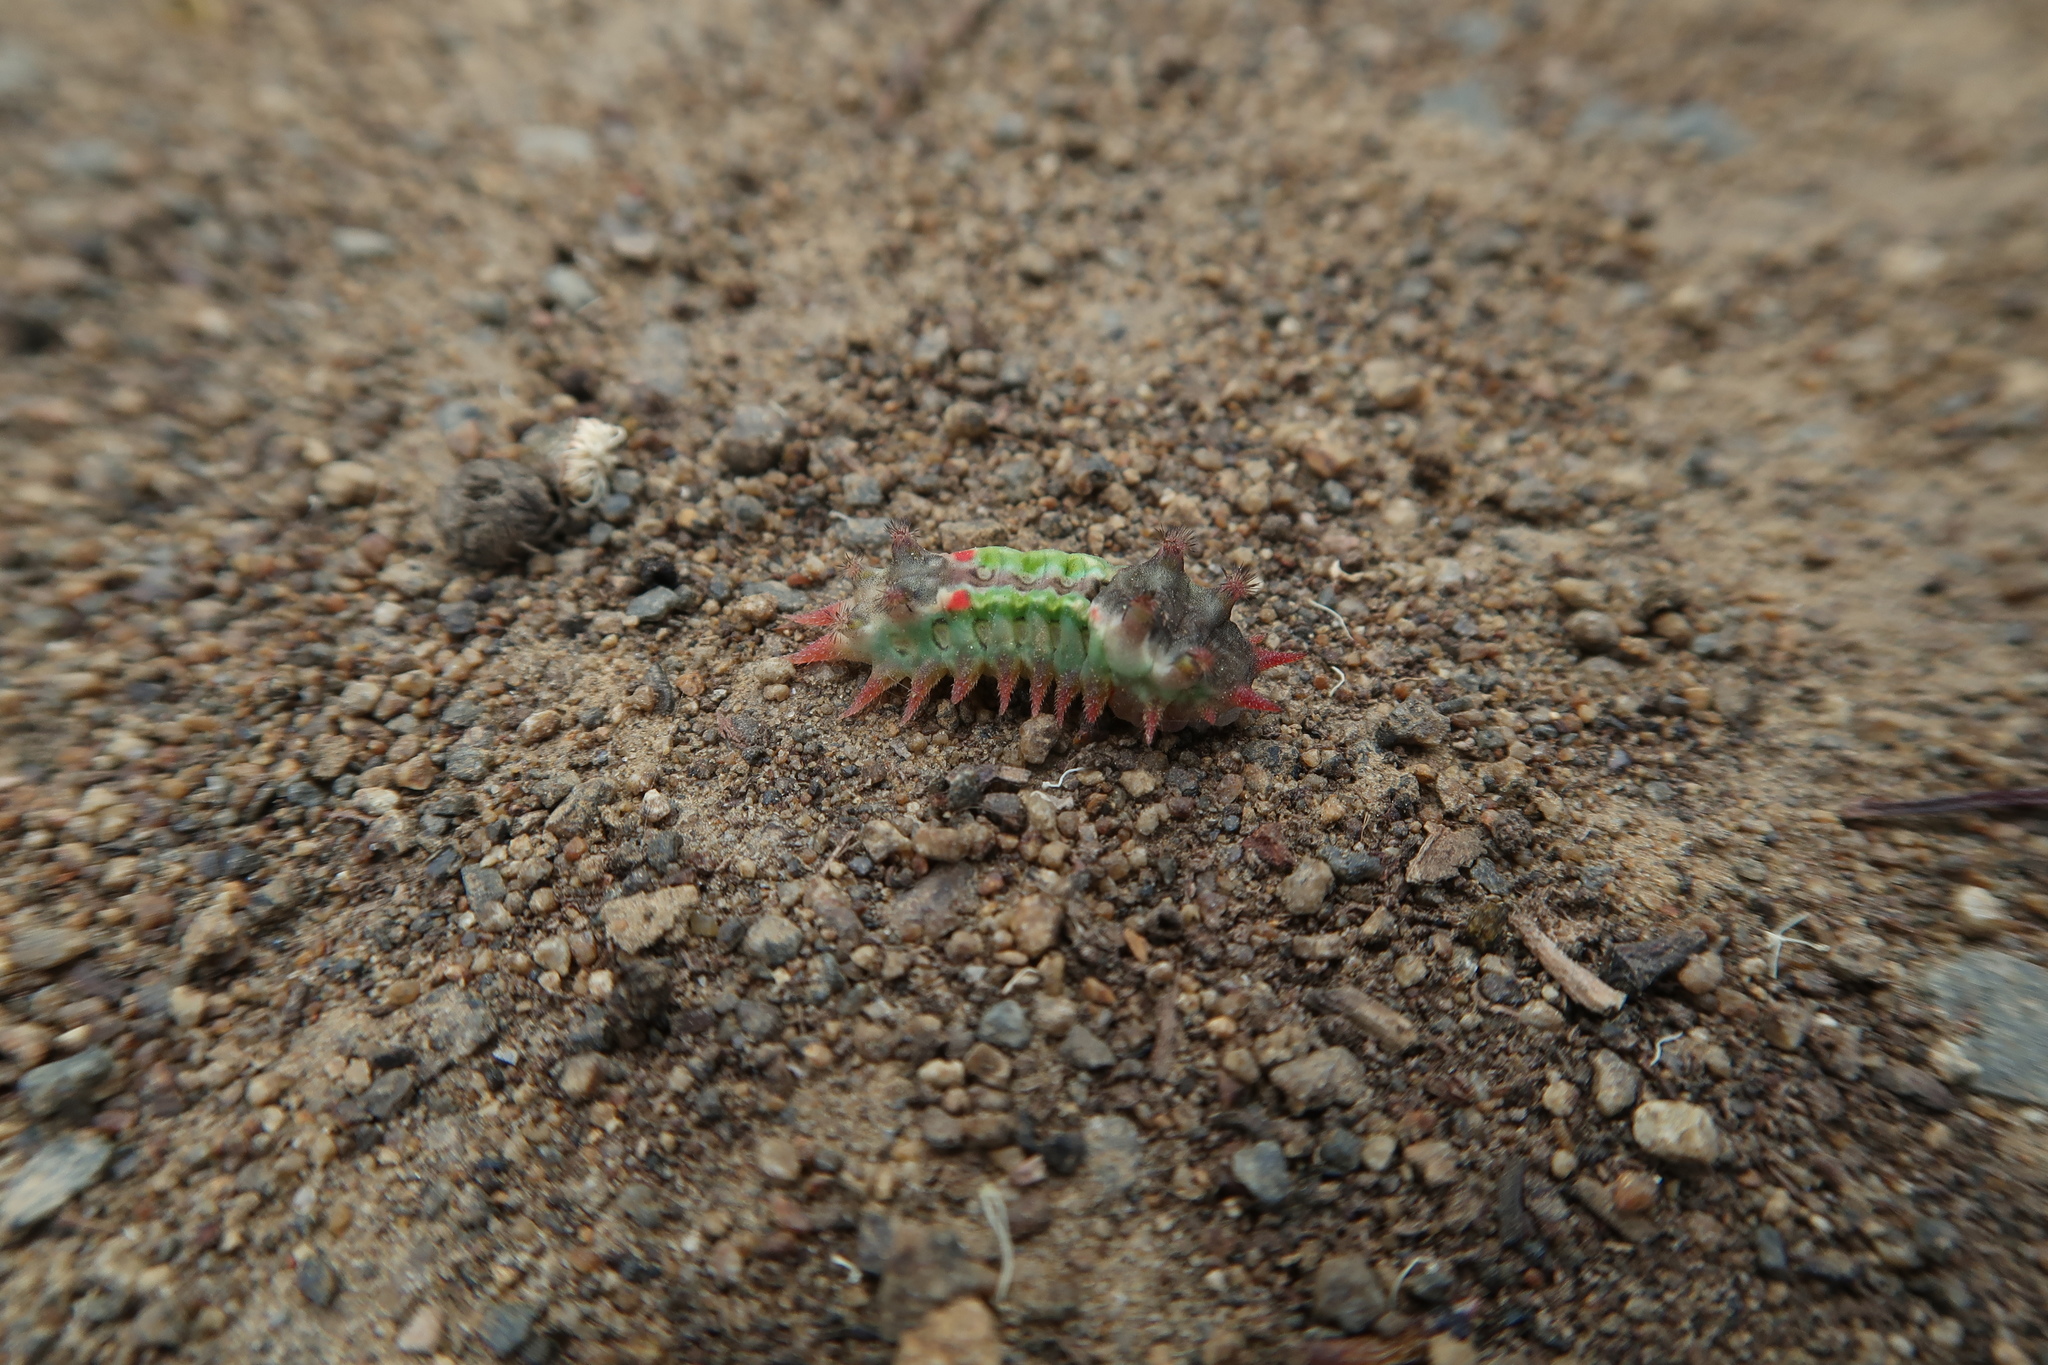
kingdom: Animalia
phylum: Arthropoda
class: Insecta
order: Lepidoptera
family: Limacodidae
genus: Doratifera
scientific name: Doratifera oxleyi
